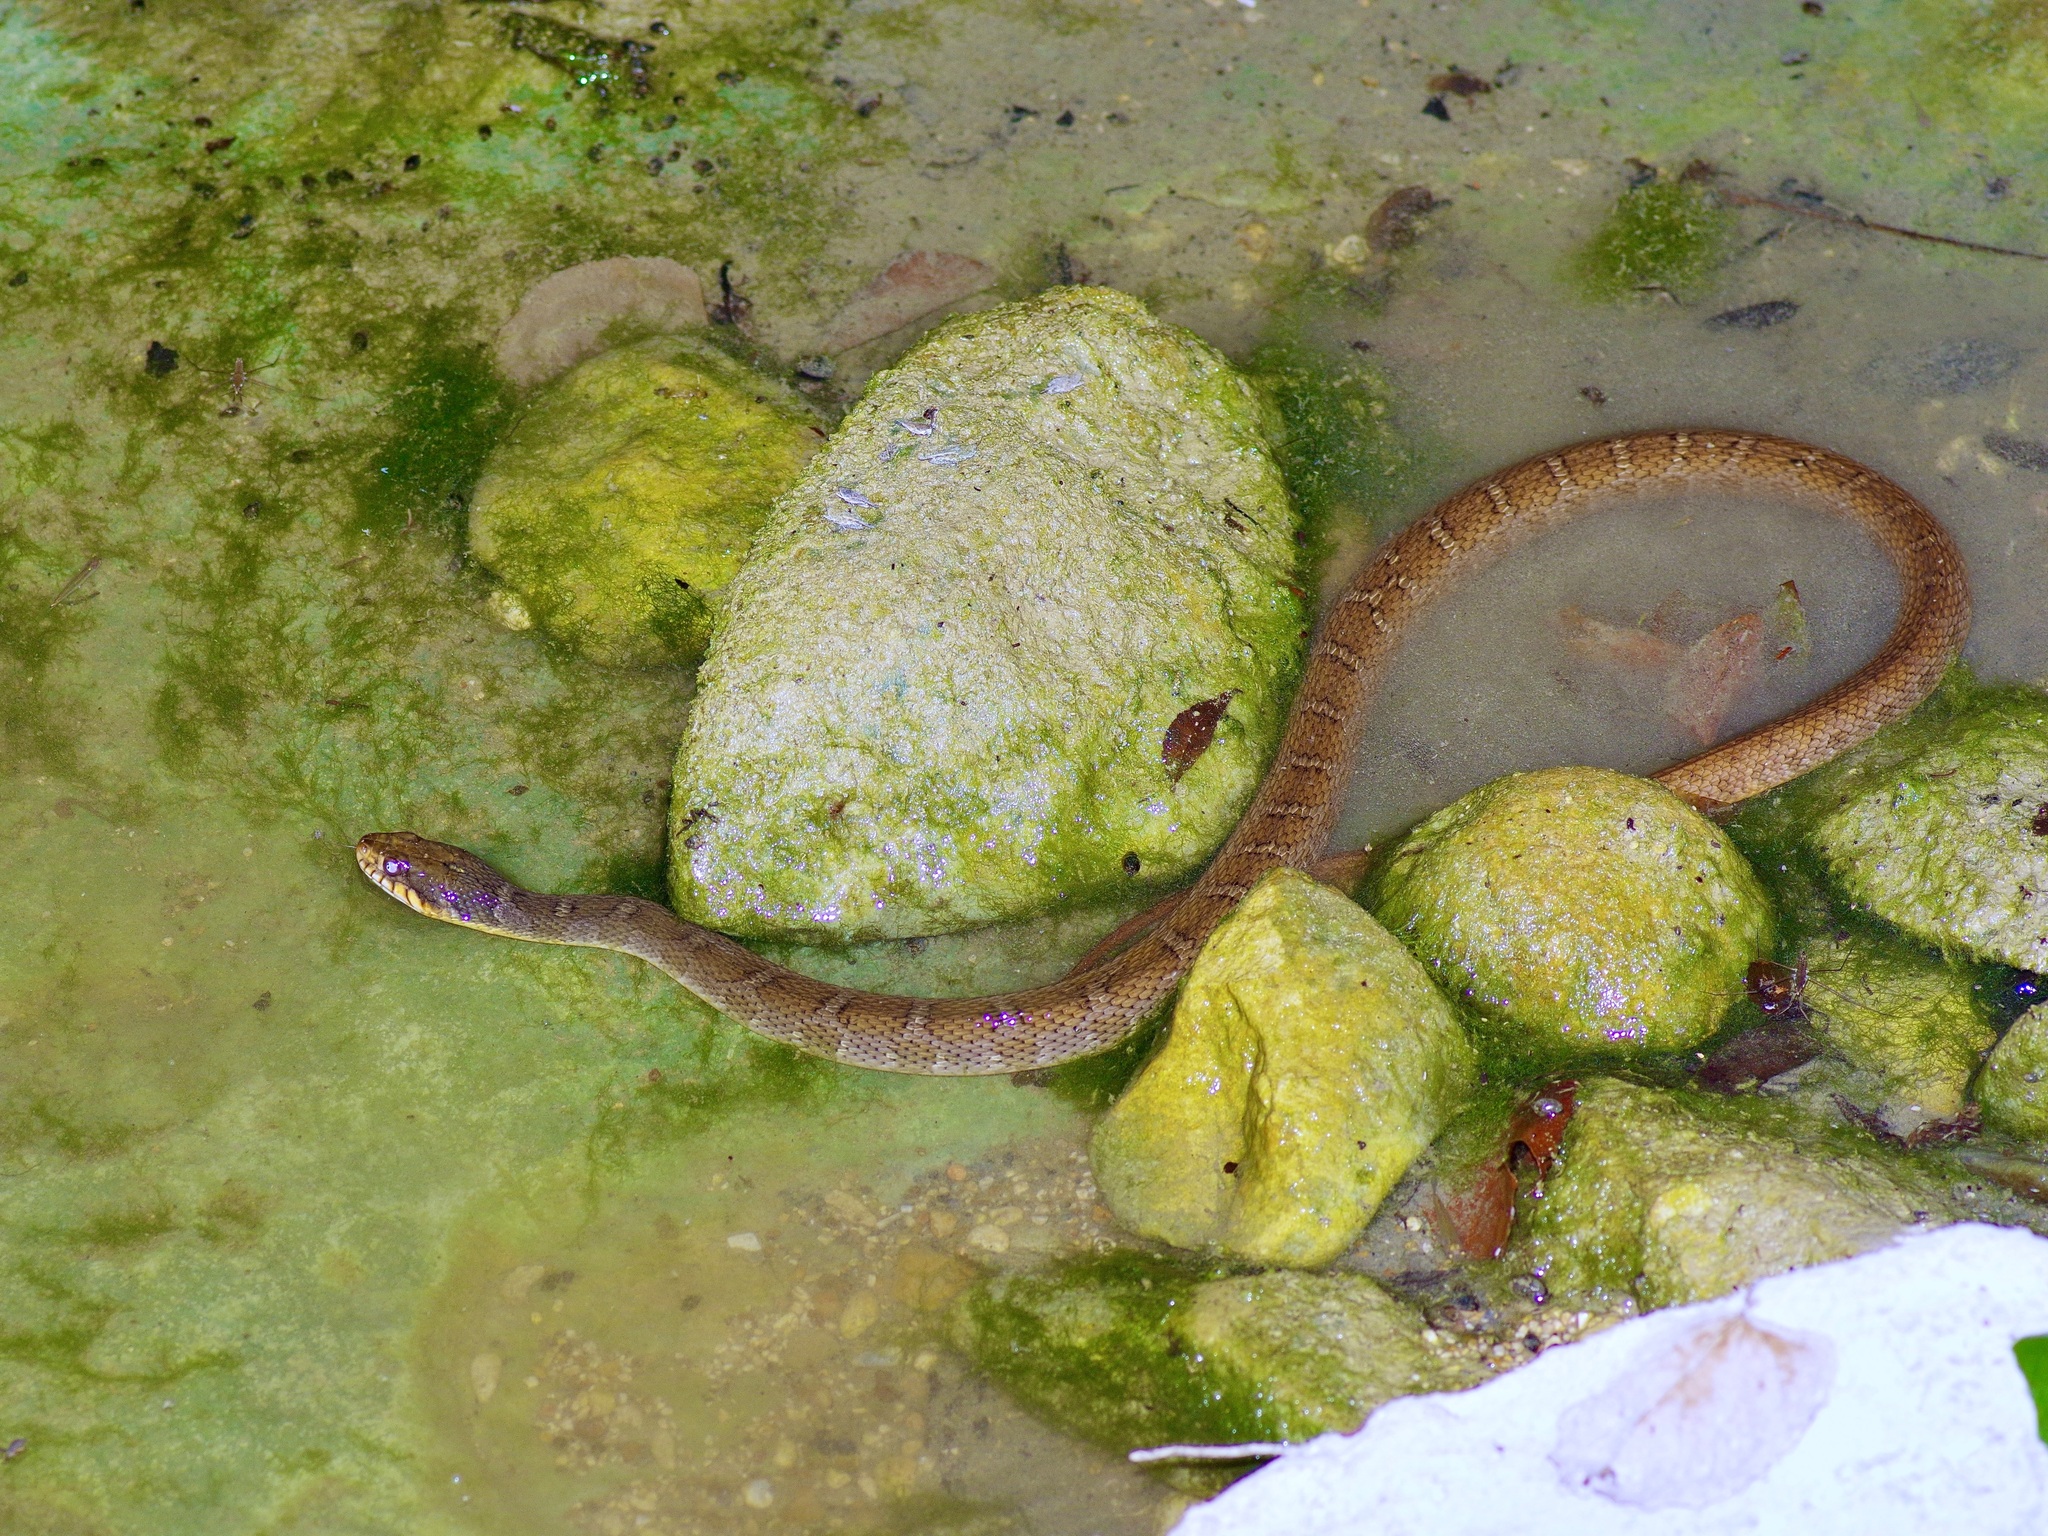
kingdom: Animalia
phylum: Chordata
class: Squamata
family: Colubridae
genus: Nerodia
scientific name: Nerodia erythrogaster
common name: Plainbelly water snake
